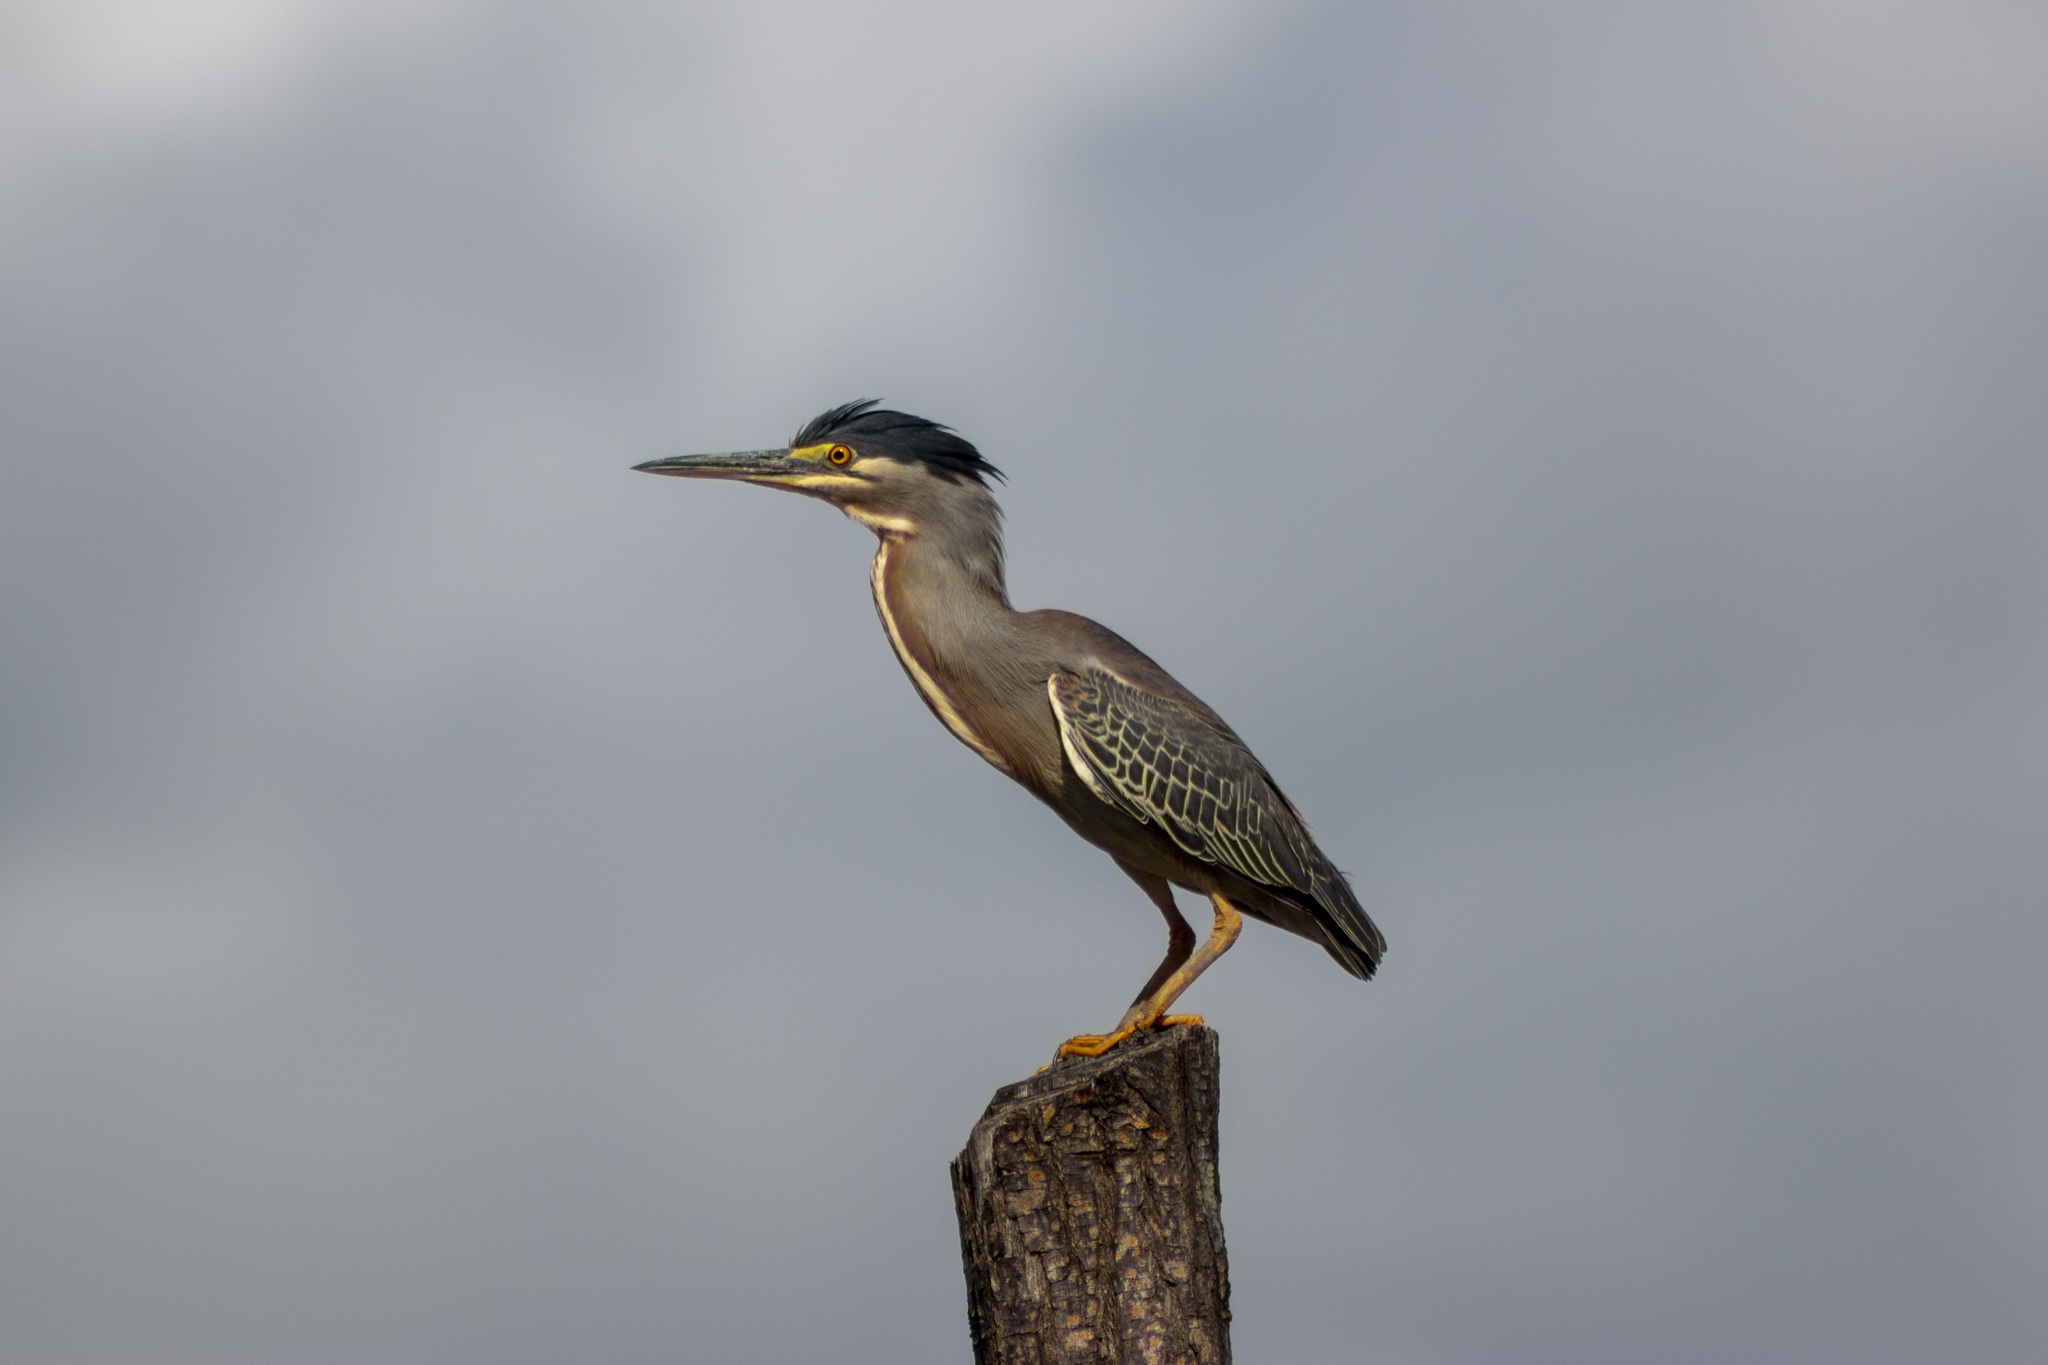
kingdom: Animalia
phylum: Chordata
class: Aves
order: Pelecaniformes
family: Ardeidae
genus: Butorides
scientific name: Butorides striata
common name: Striated heron
